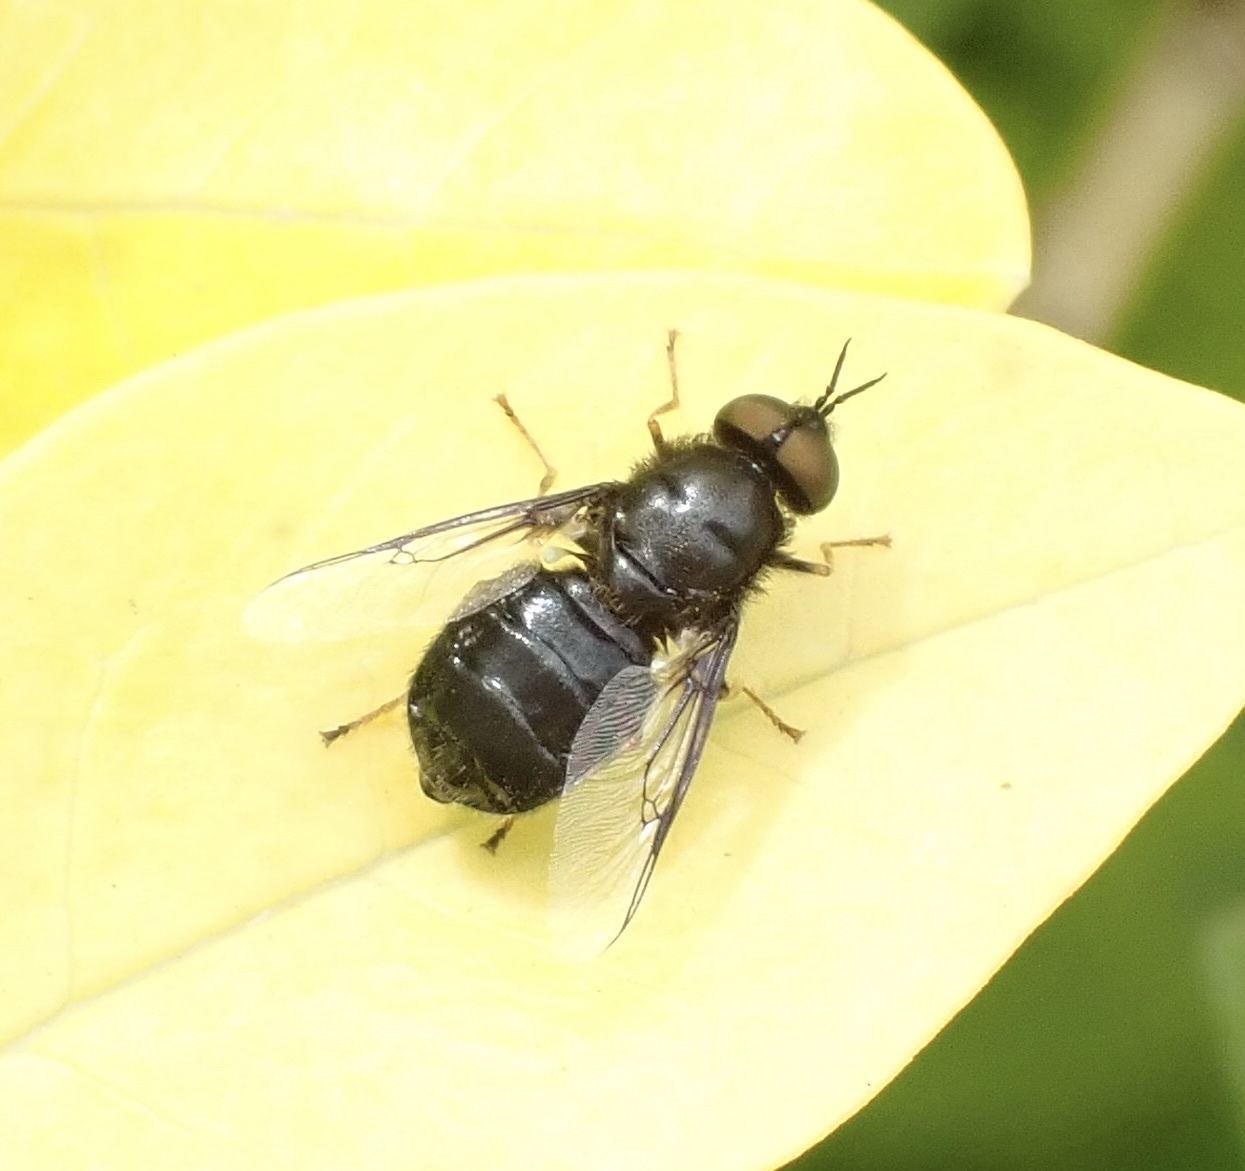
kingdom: Animalia
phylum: Arthropoda
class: Insecta
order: Diptera
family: Stratiomyidae
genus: Odontomyia
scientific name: Odontomyia tigrina
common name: Black colonel
